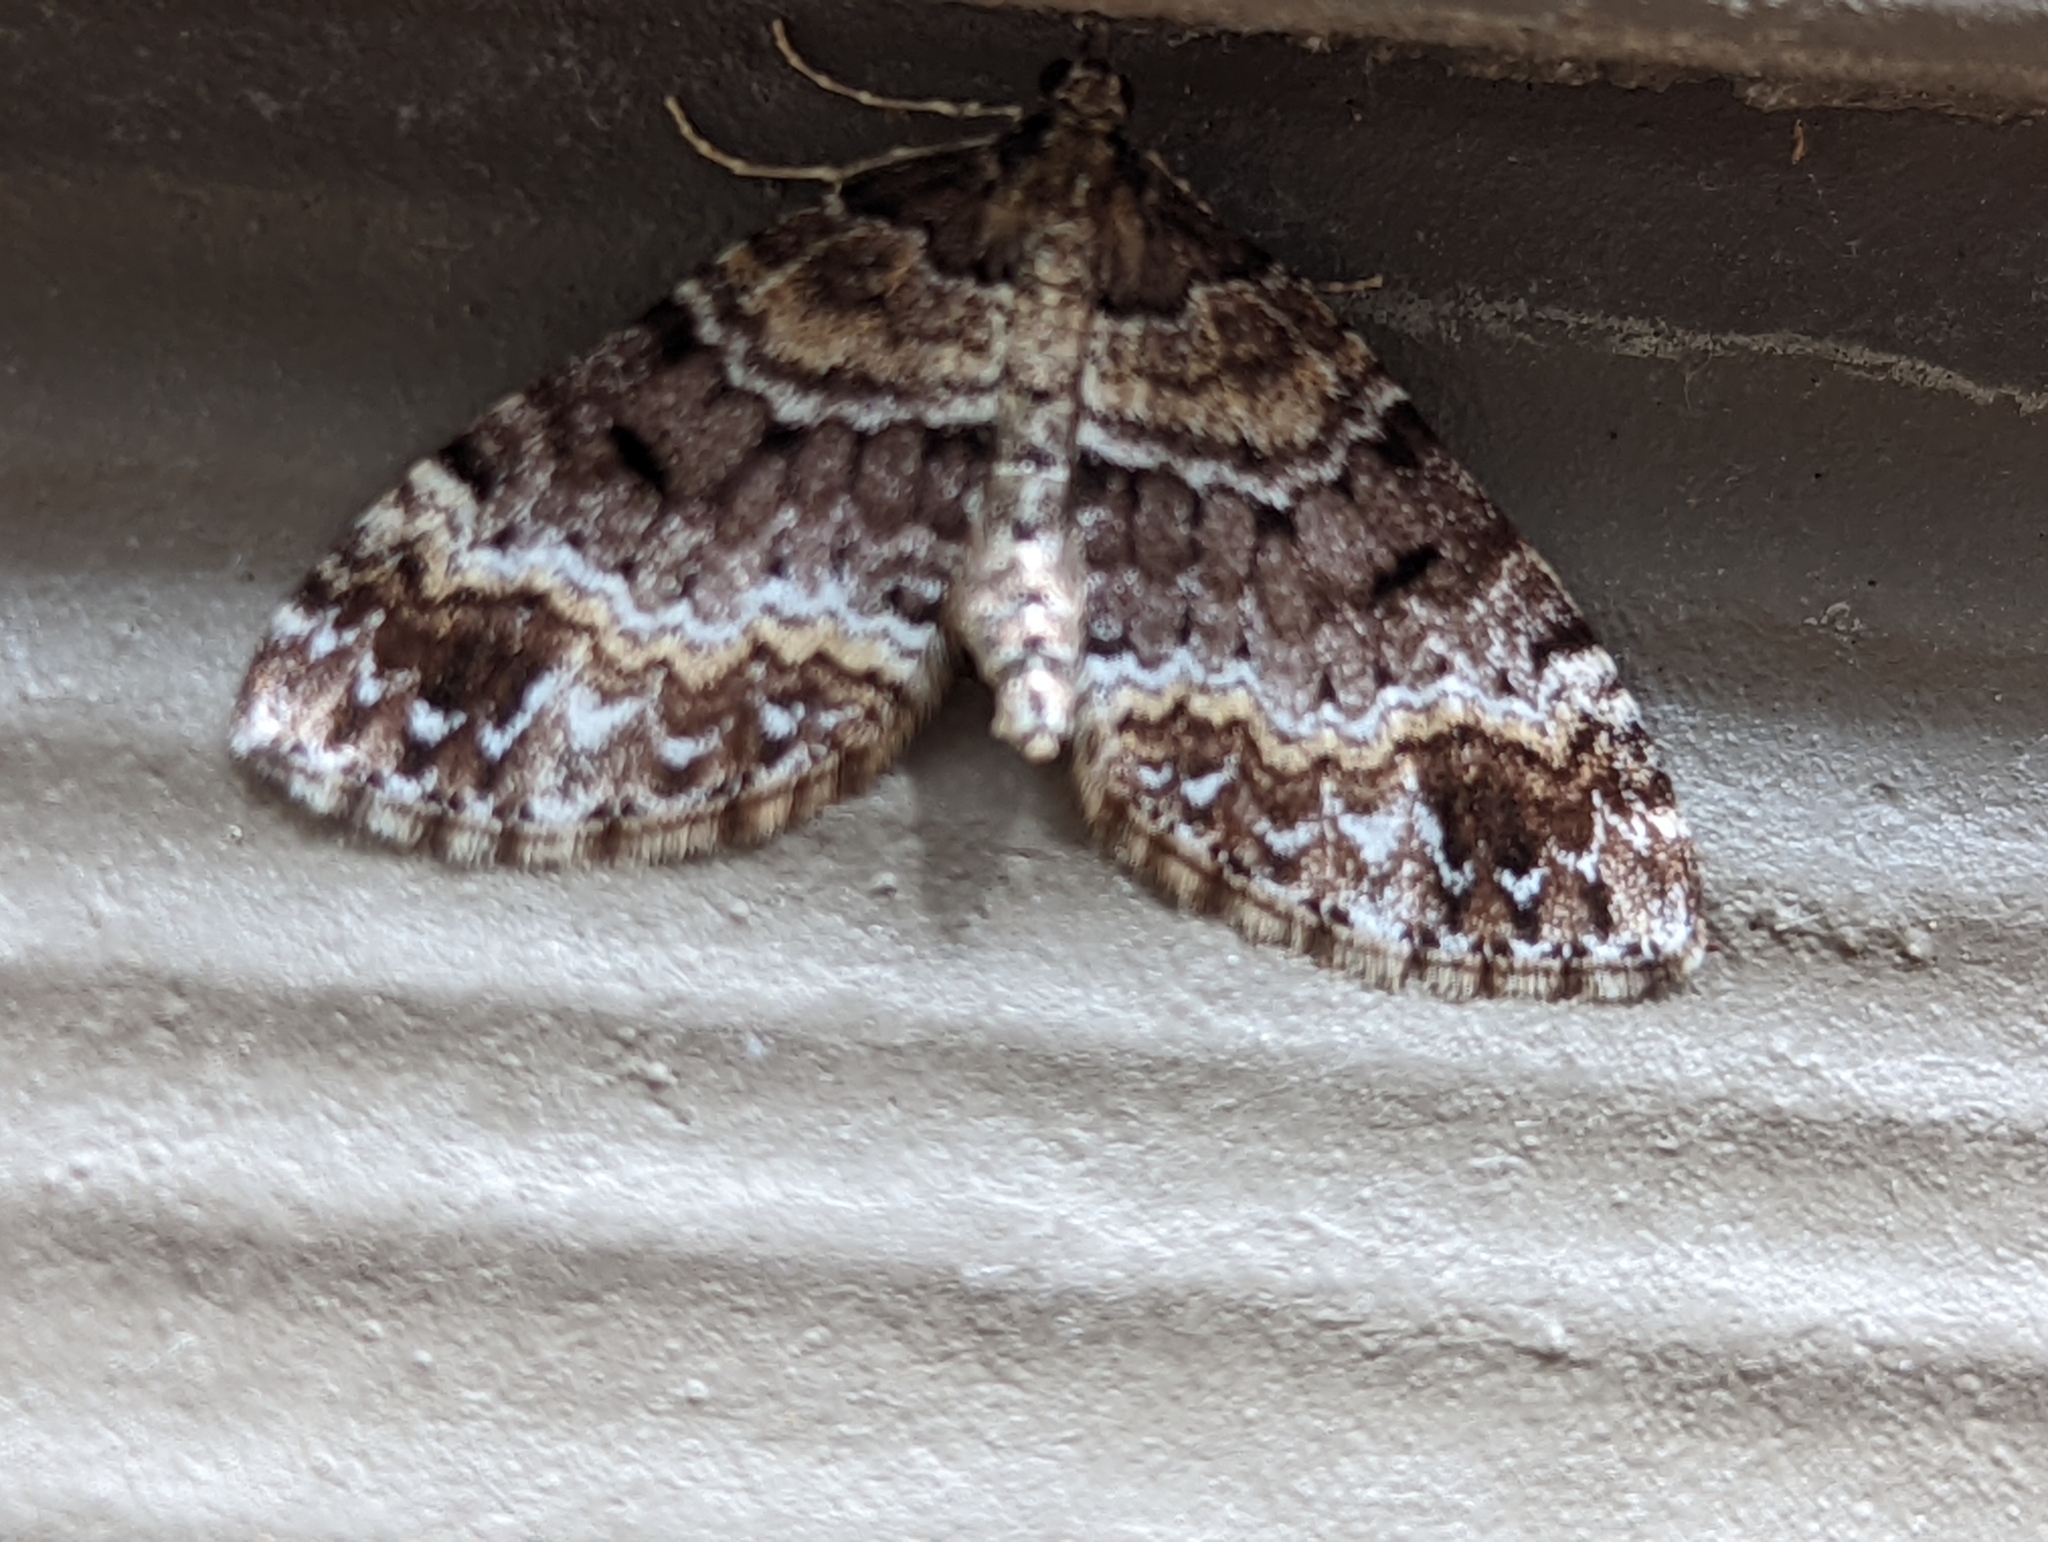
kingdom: Animalia
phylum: Arthropoda
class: Insecta
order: Lepidoptera
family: Geometridae
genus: Martania
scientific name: Martania
